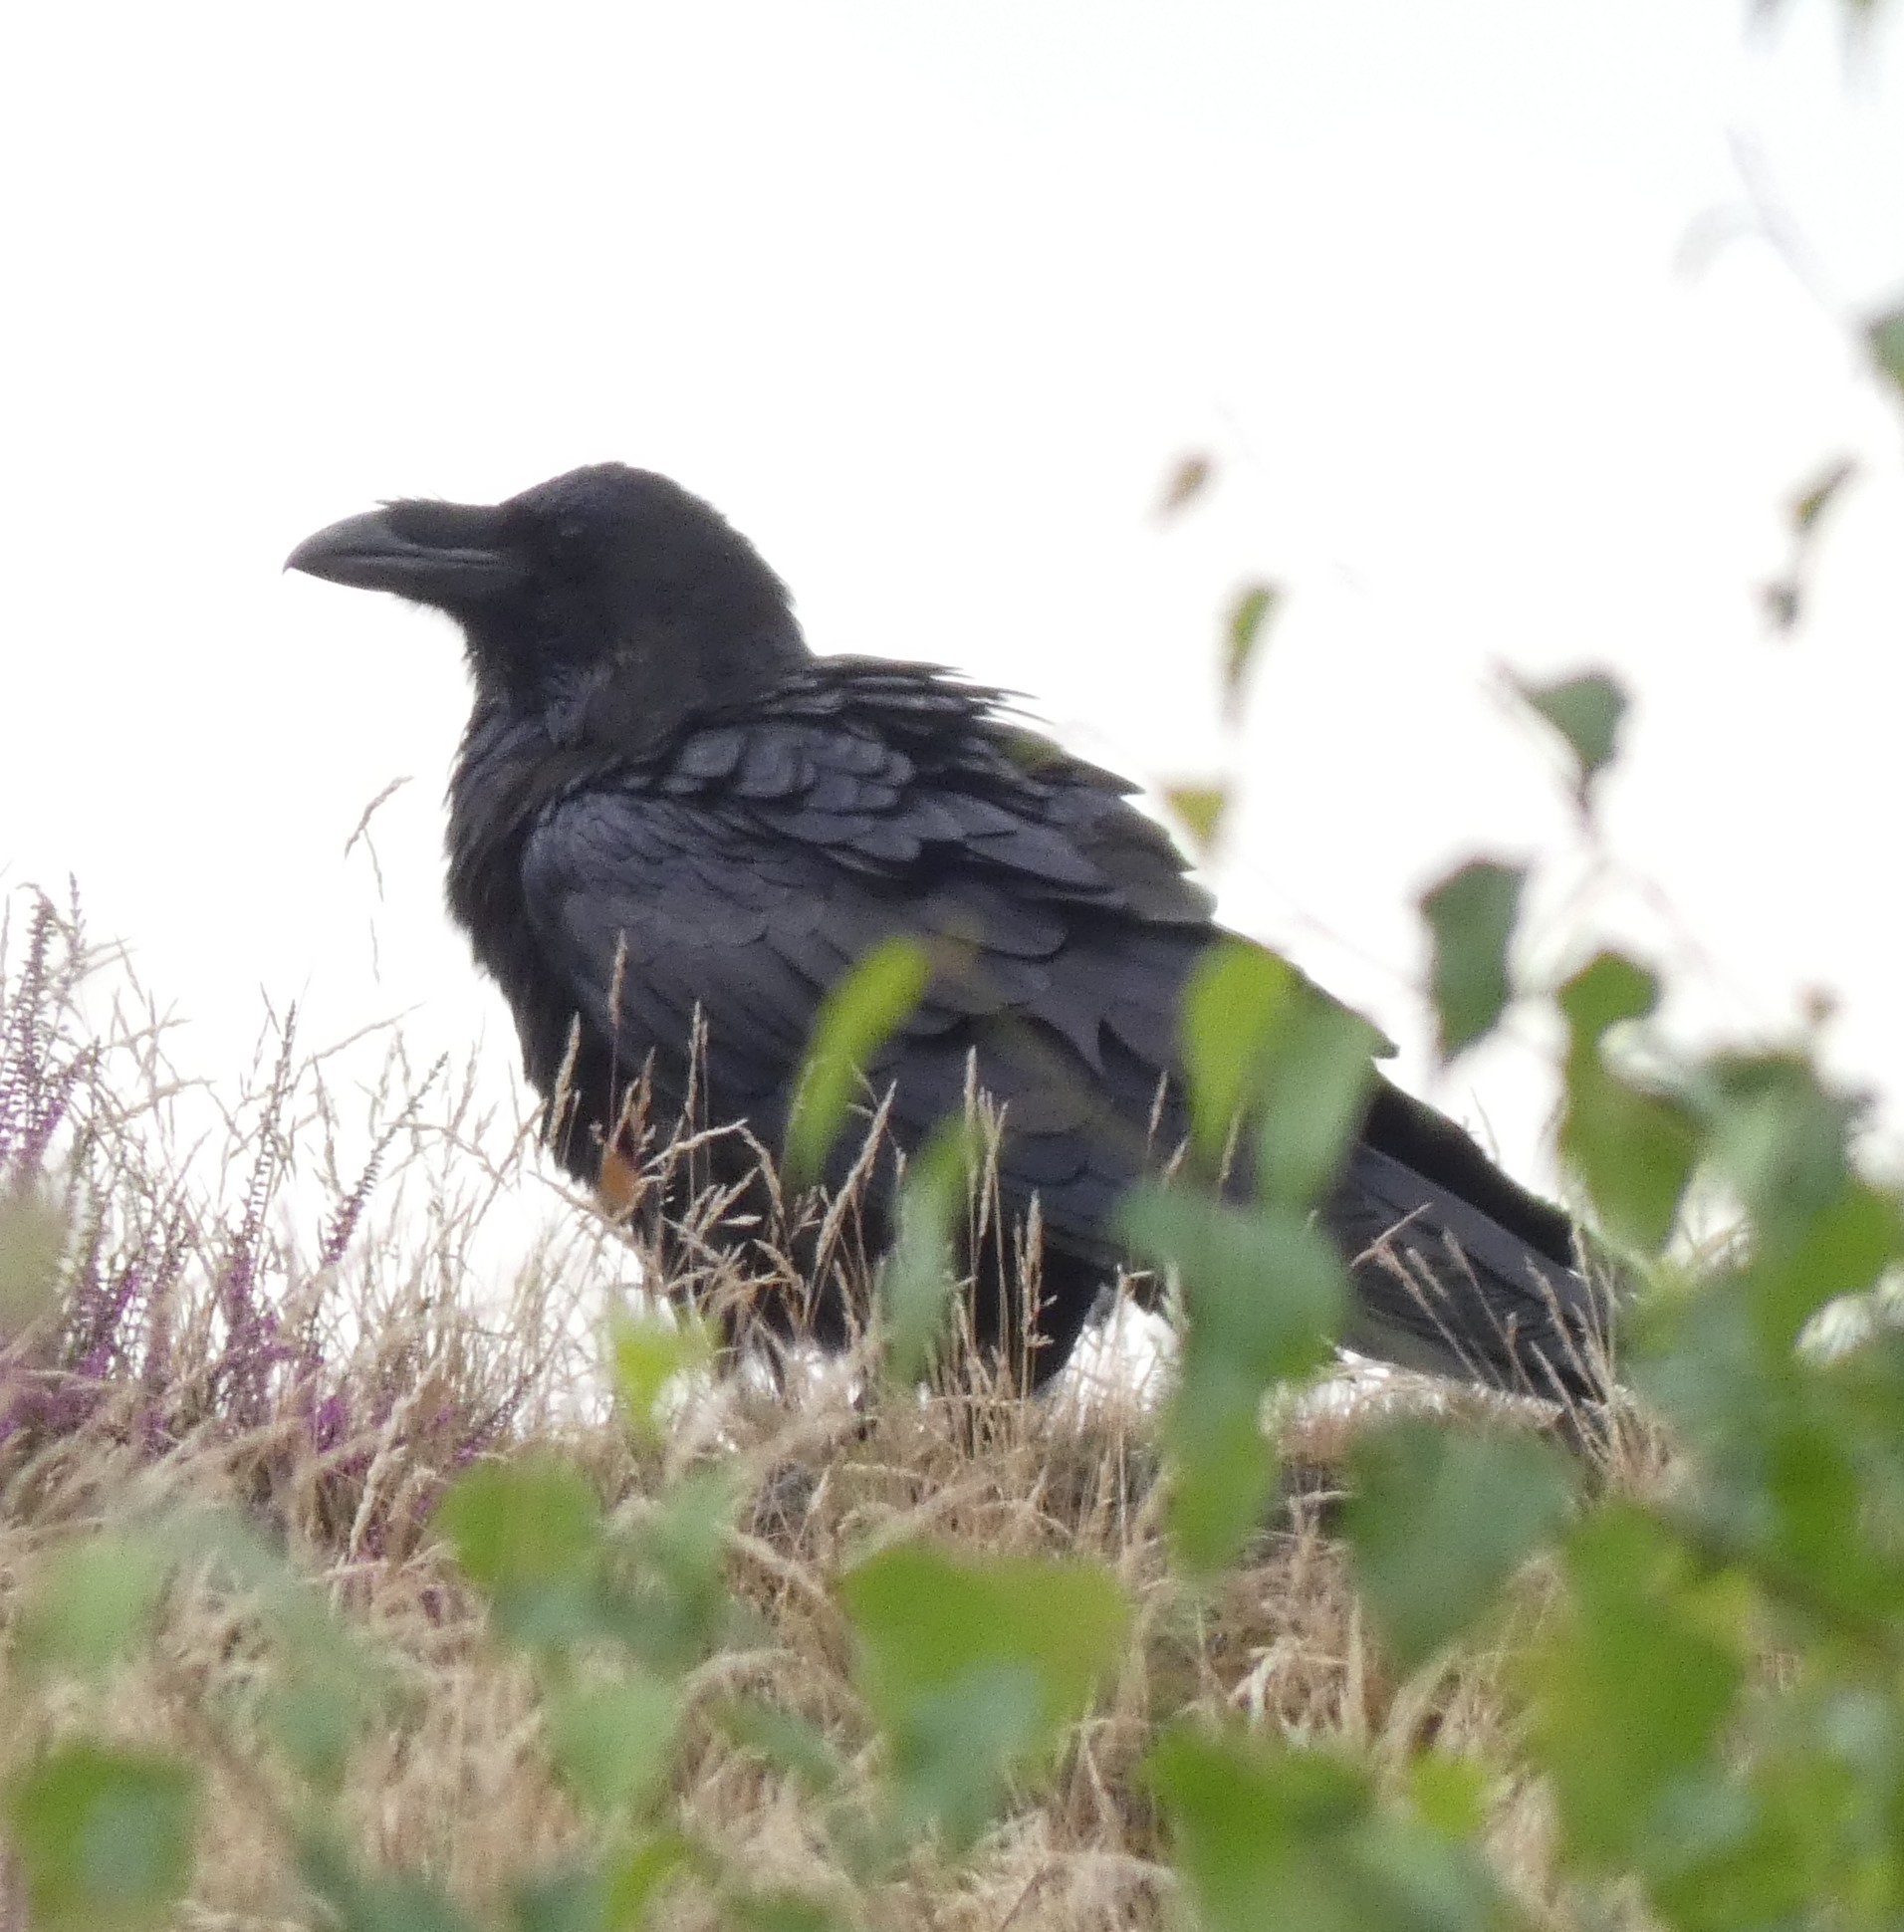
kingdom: Animalia
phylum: Chordata
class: Aves
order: Passeriformes
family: Corvidae
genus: Corvus
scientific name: Corvus corax
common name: Common raven
